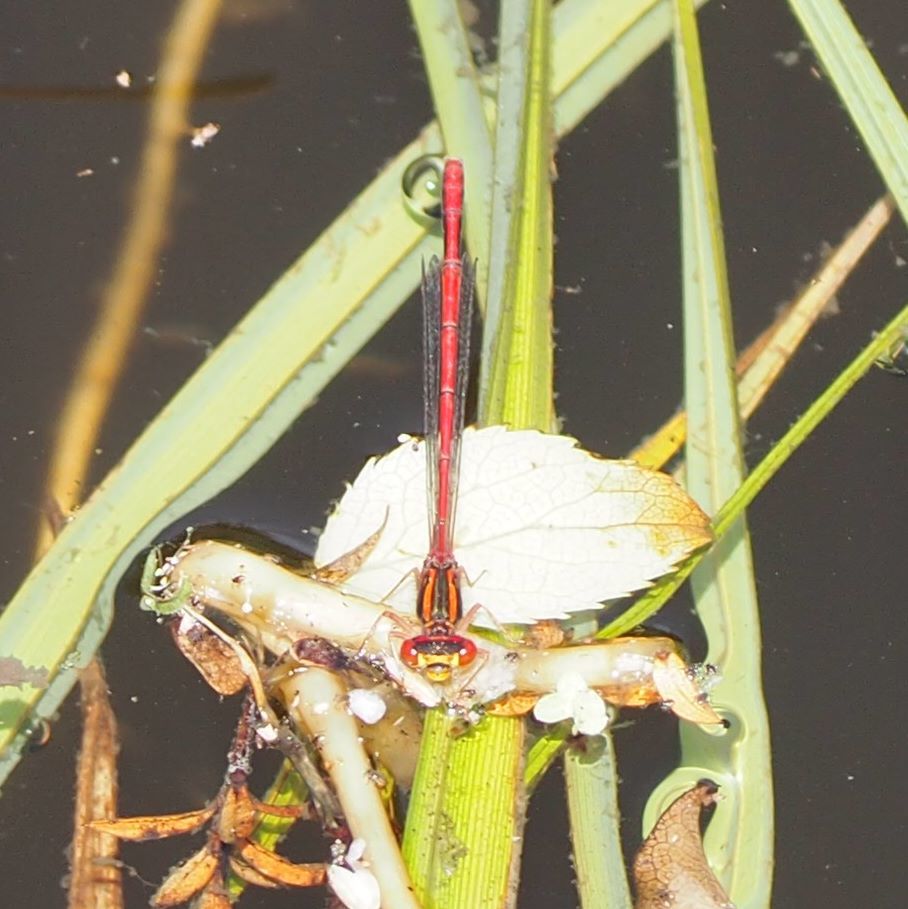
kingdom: Animalia
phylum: Arthropoda
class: Insecta
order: Odonata
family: Coenagrionidae
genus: Xanthocnemis
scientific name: Xanthocnemis zealandica
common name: Common redcoat damselfly
